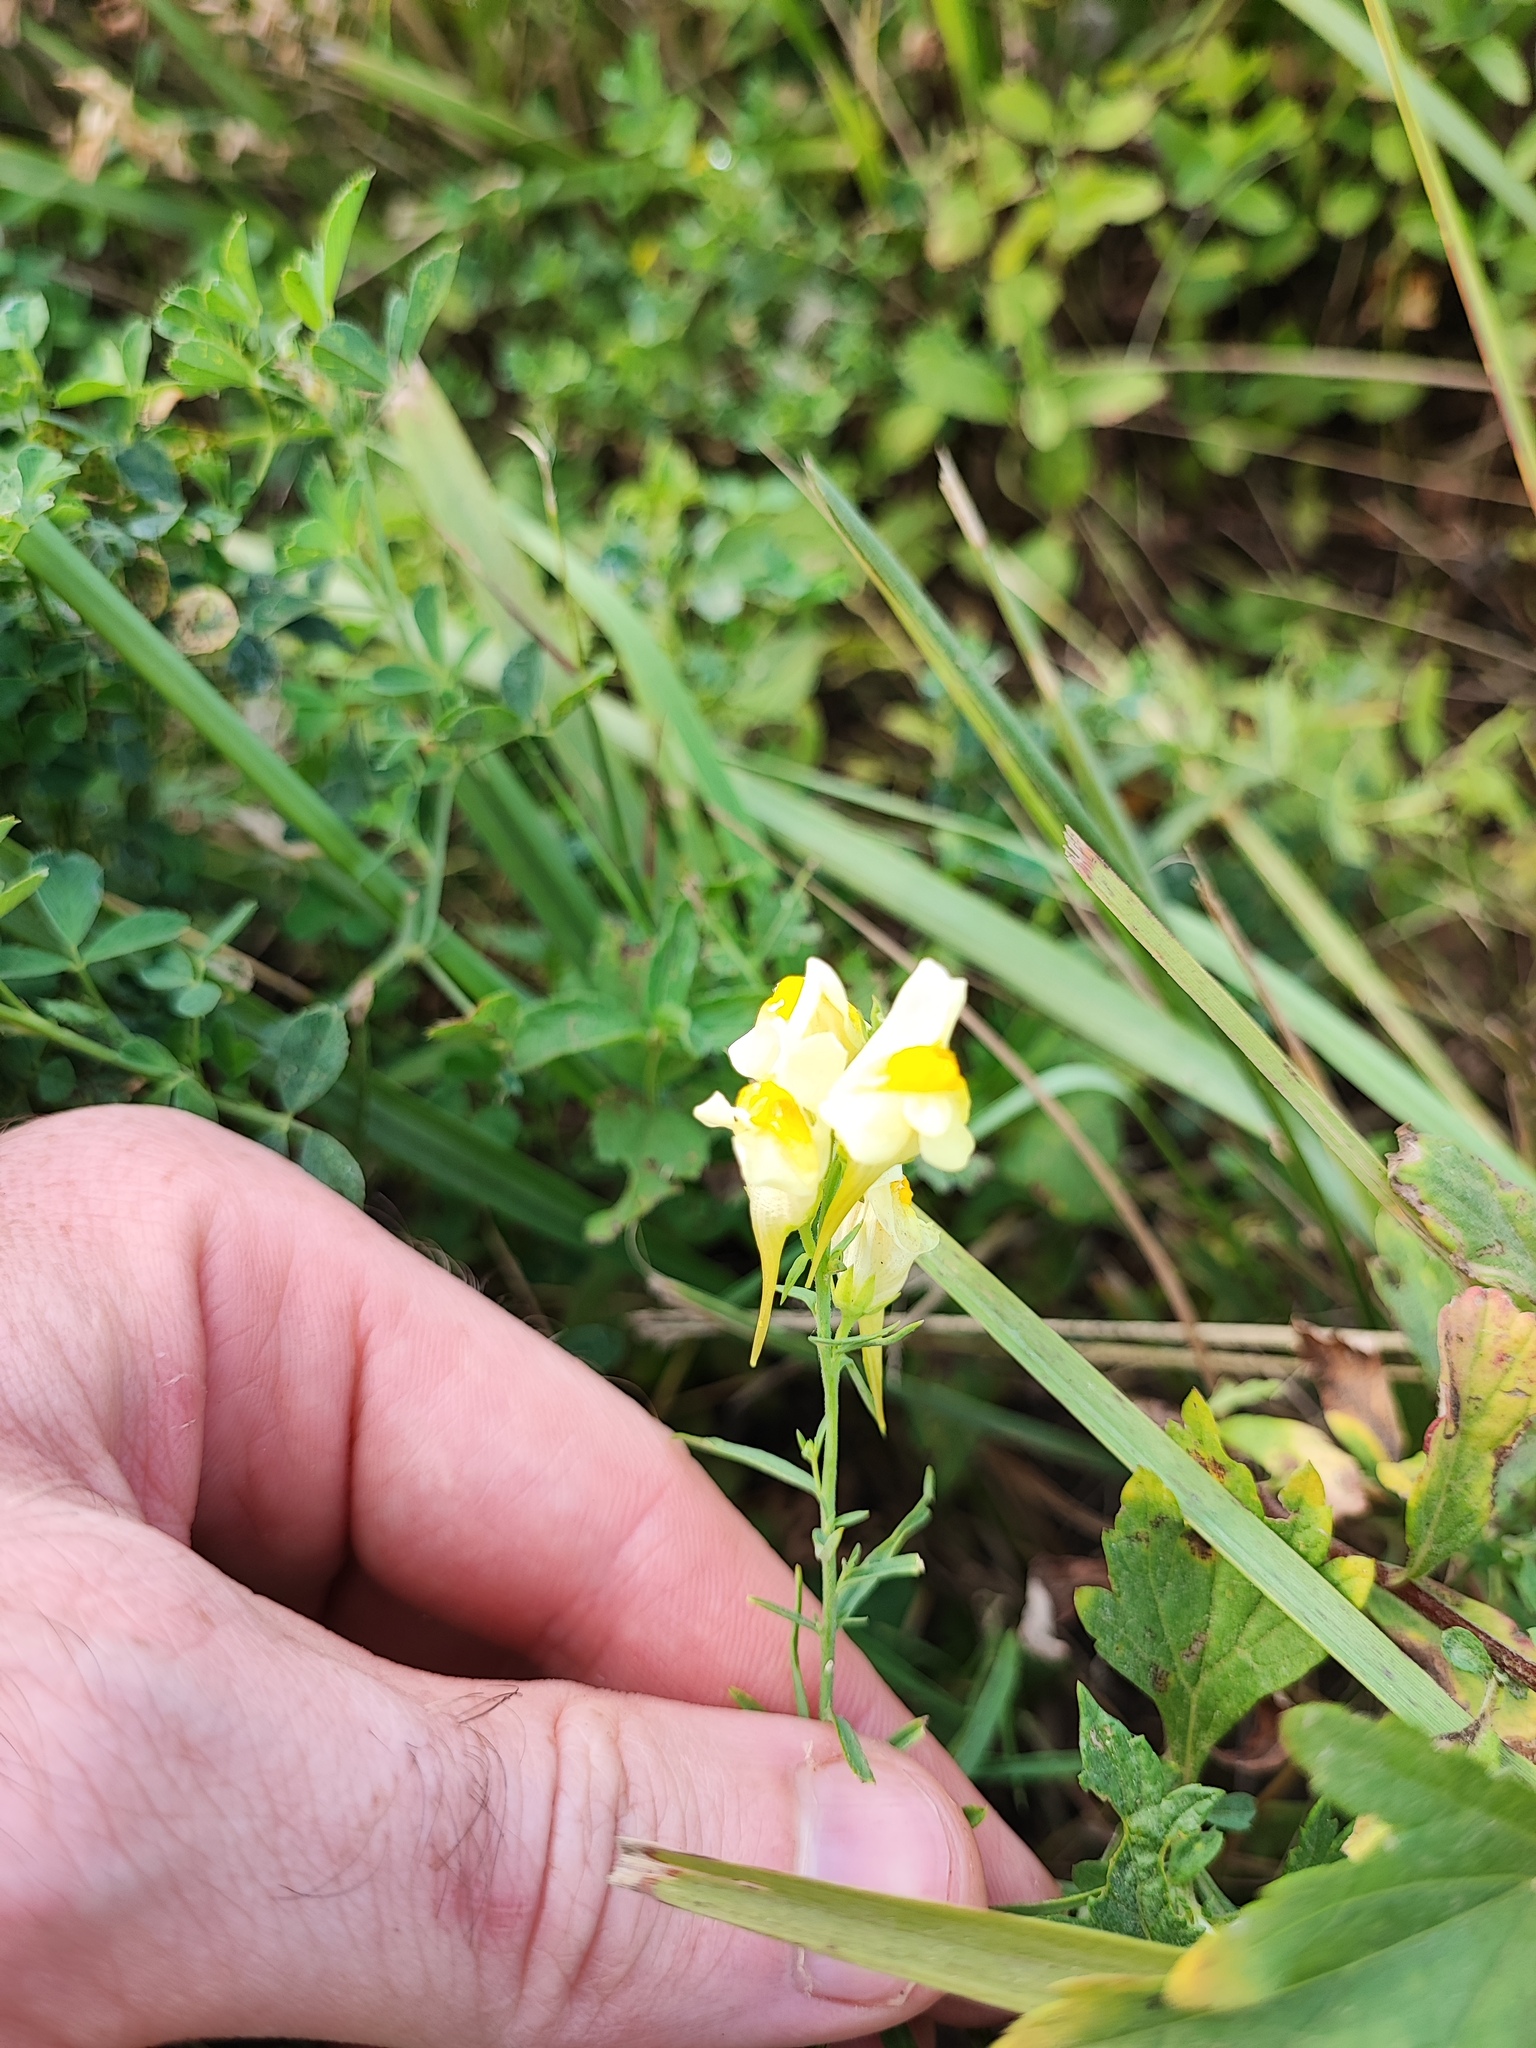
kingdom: Plantae
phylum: Tracheophyta
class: Magnoliopsida
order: Lamiales
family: Plantaginaceae
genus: Linaria
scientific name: Linaria vulgaris
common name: Butter and eggs
